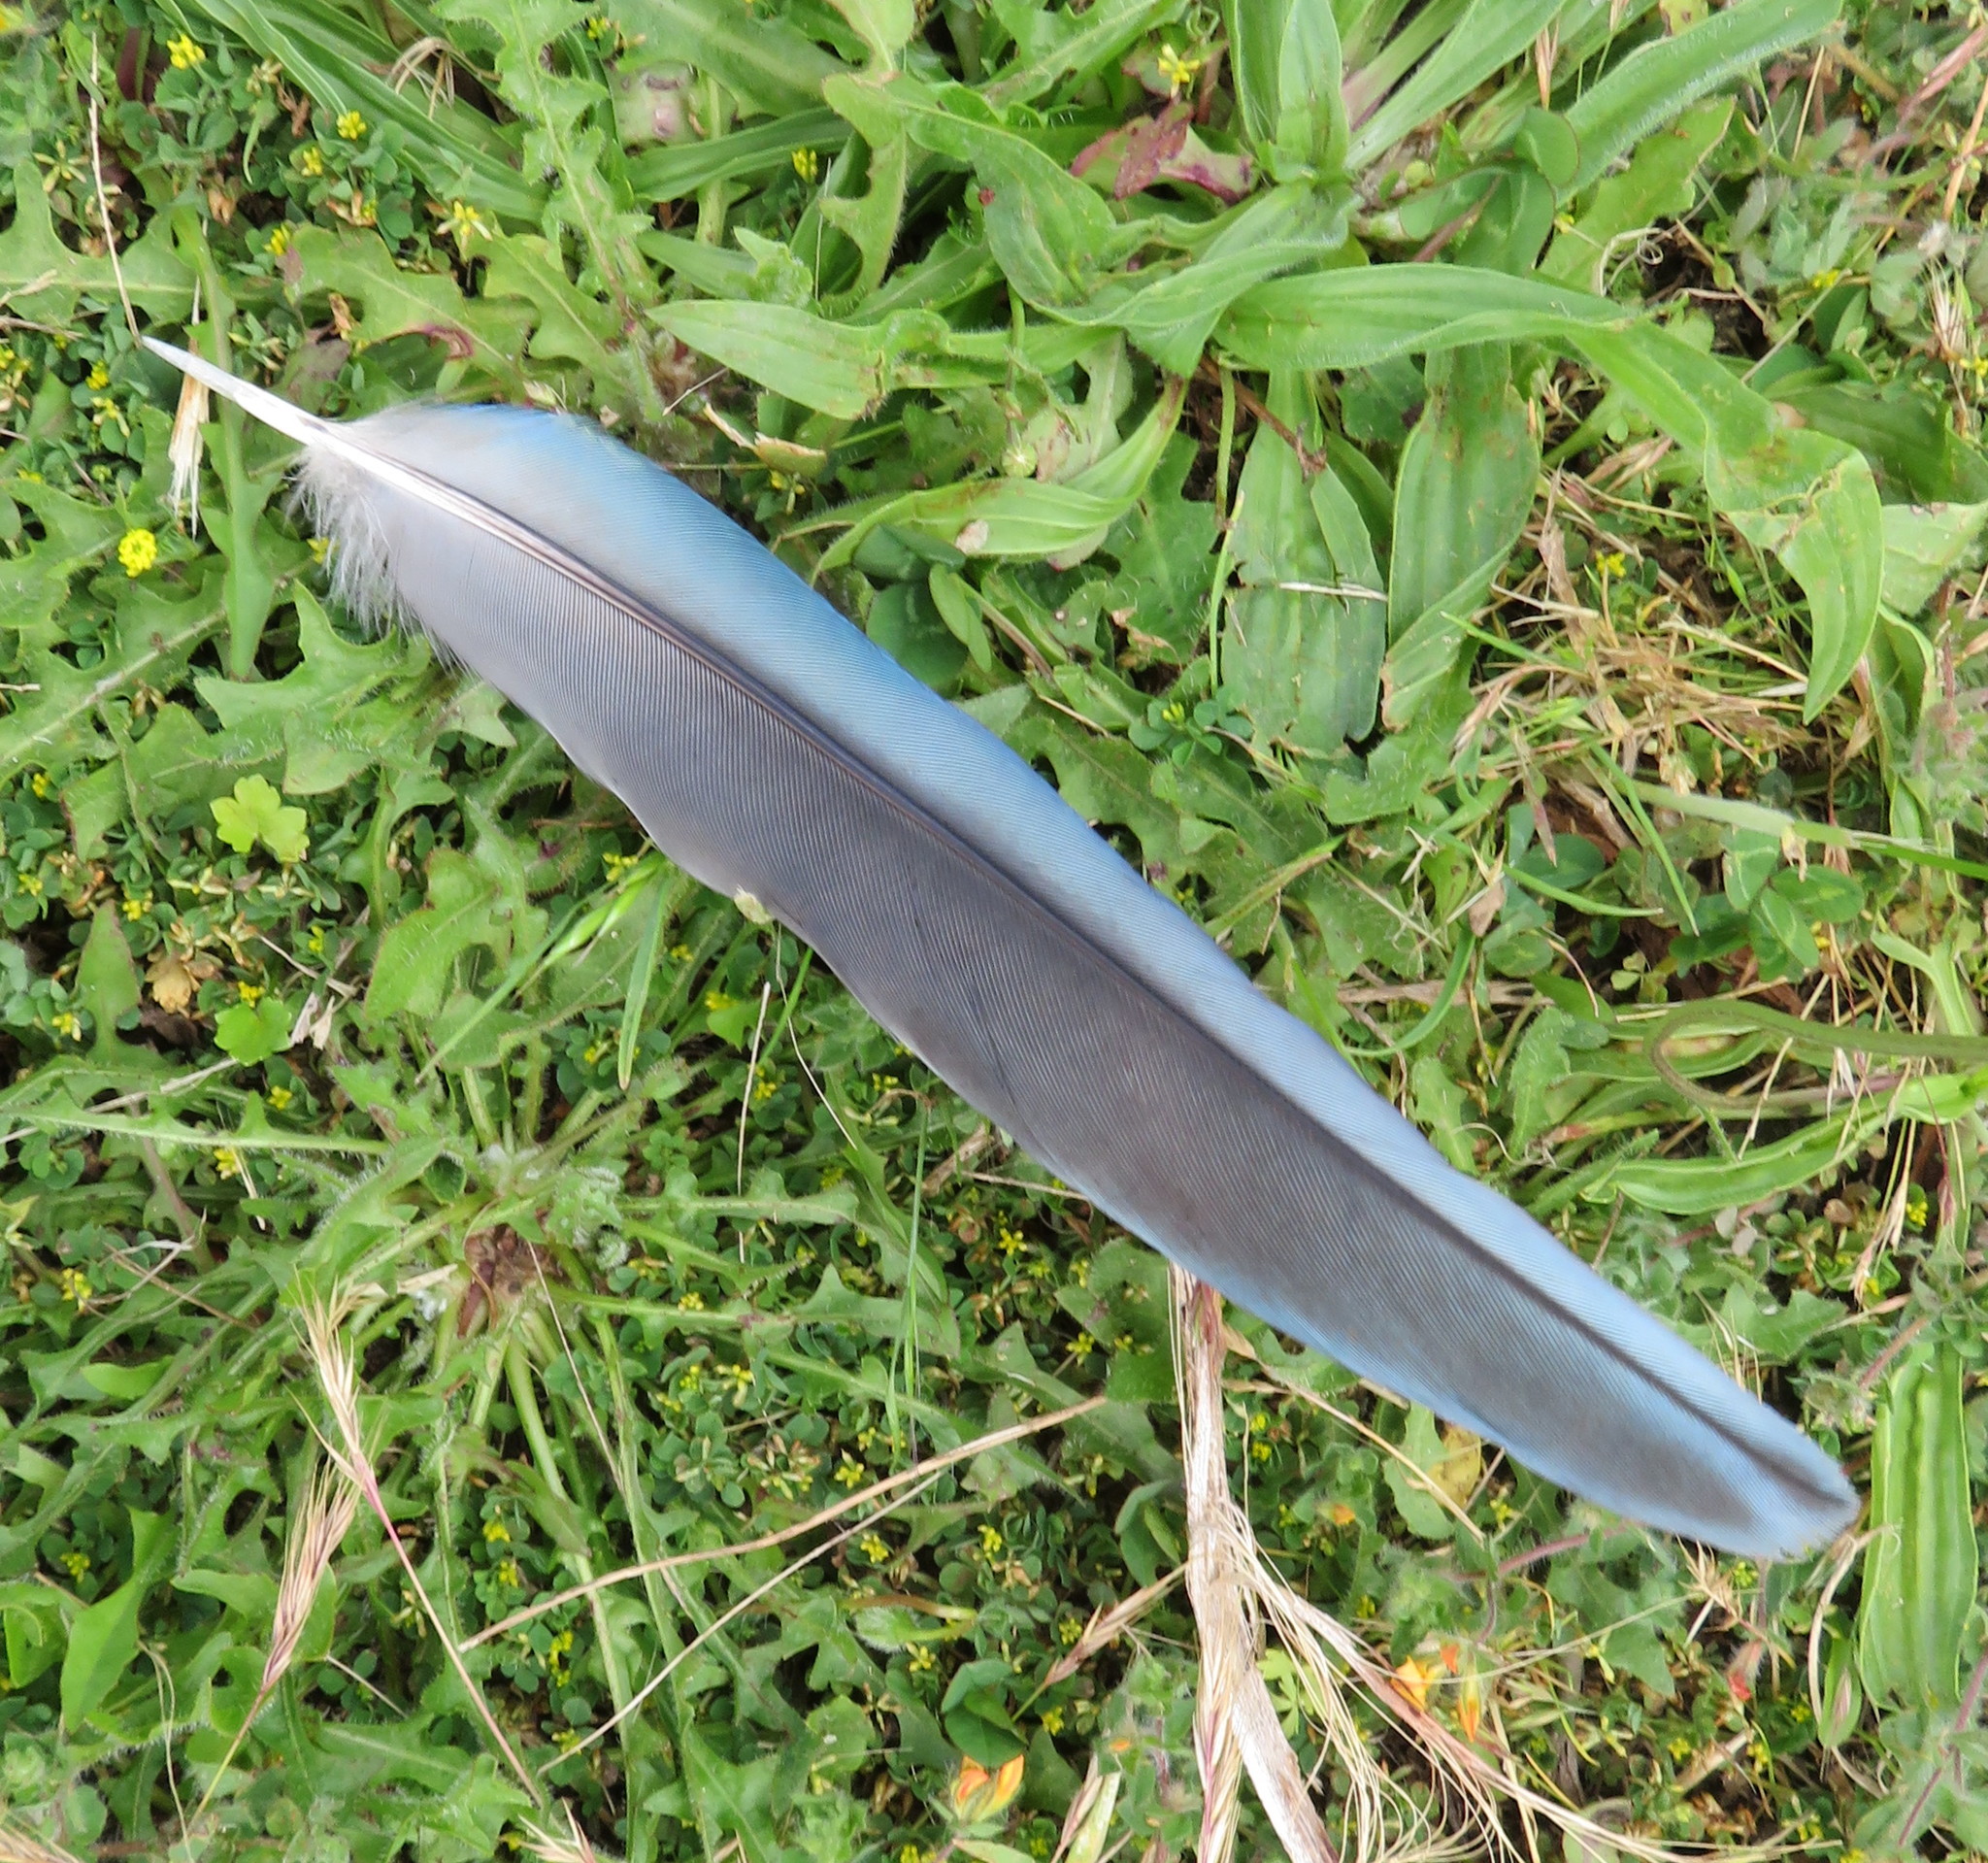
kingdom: Animalia
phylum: Chordata
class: Aves
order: Psittaciformes
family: Psittacidae
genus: Platycercus
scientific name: Platycercus eximius
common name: Eastern rosella
